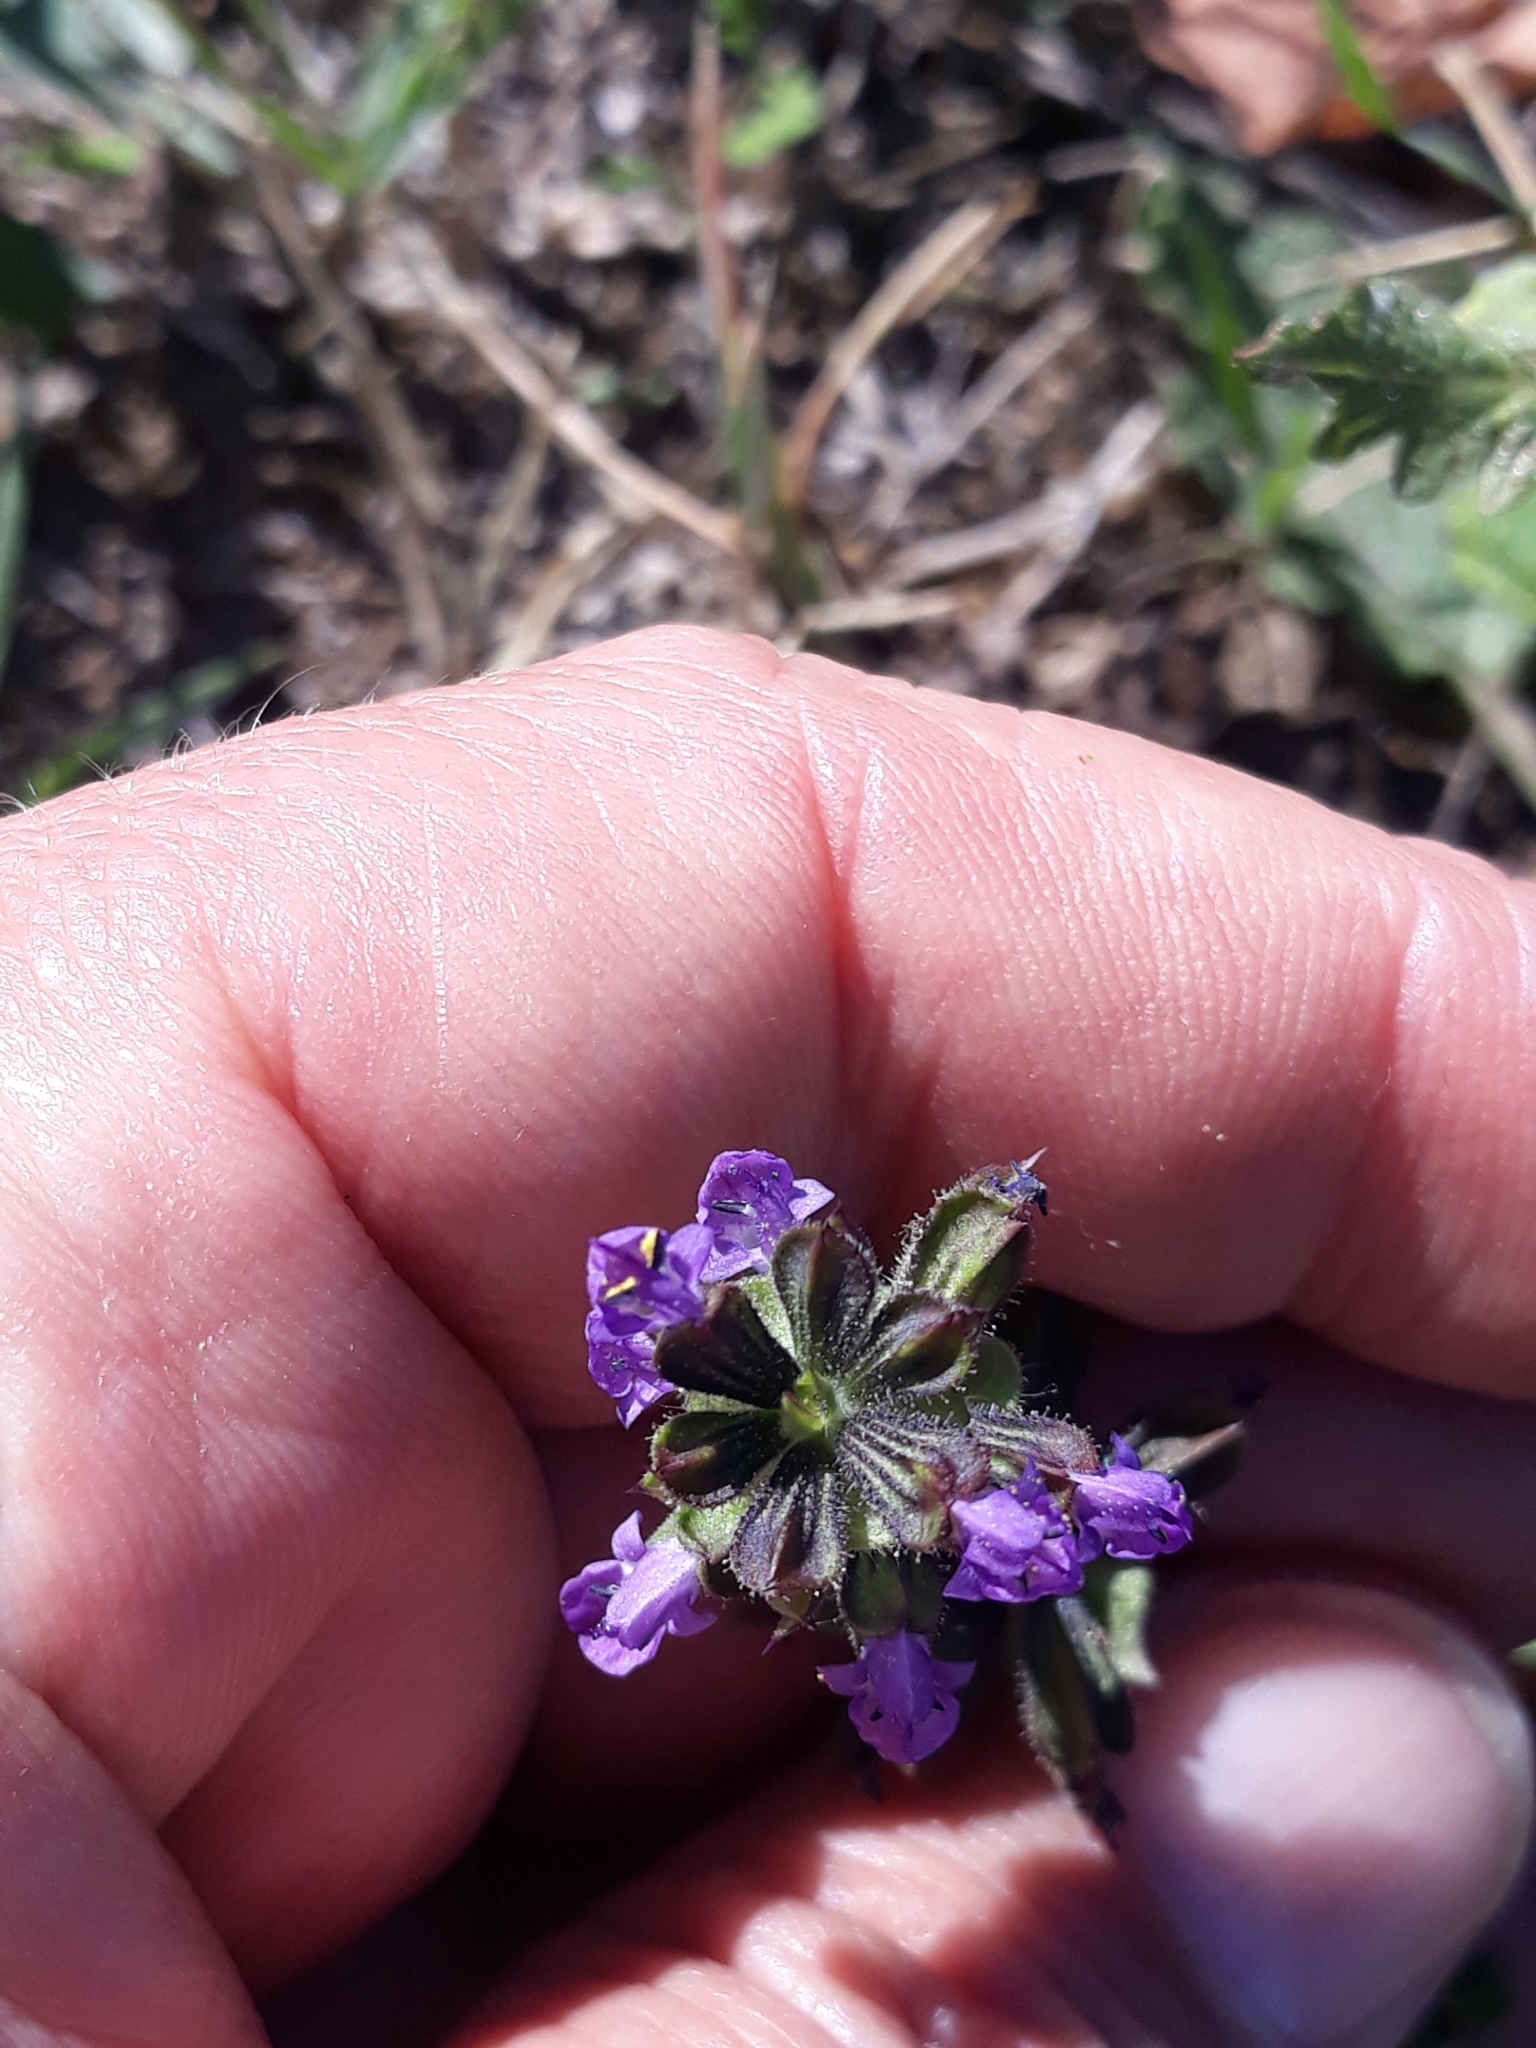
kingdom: Plantae
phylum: Tracheophyta
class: Magnoliopsida
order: Lamiales
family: Lamiaceae
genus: Salvia
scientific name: Salvia verbenaca
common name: Wild clary
